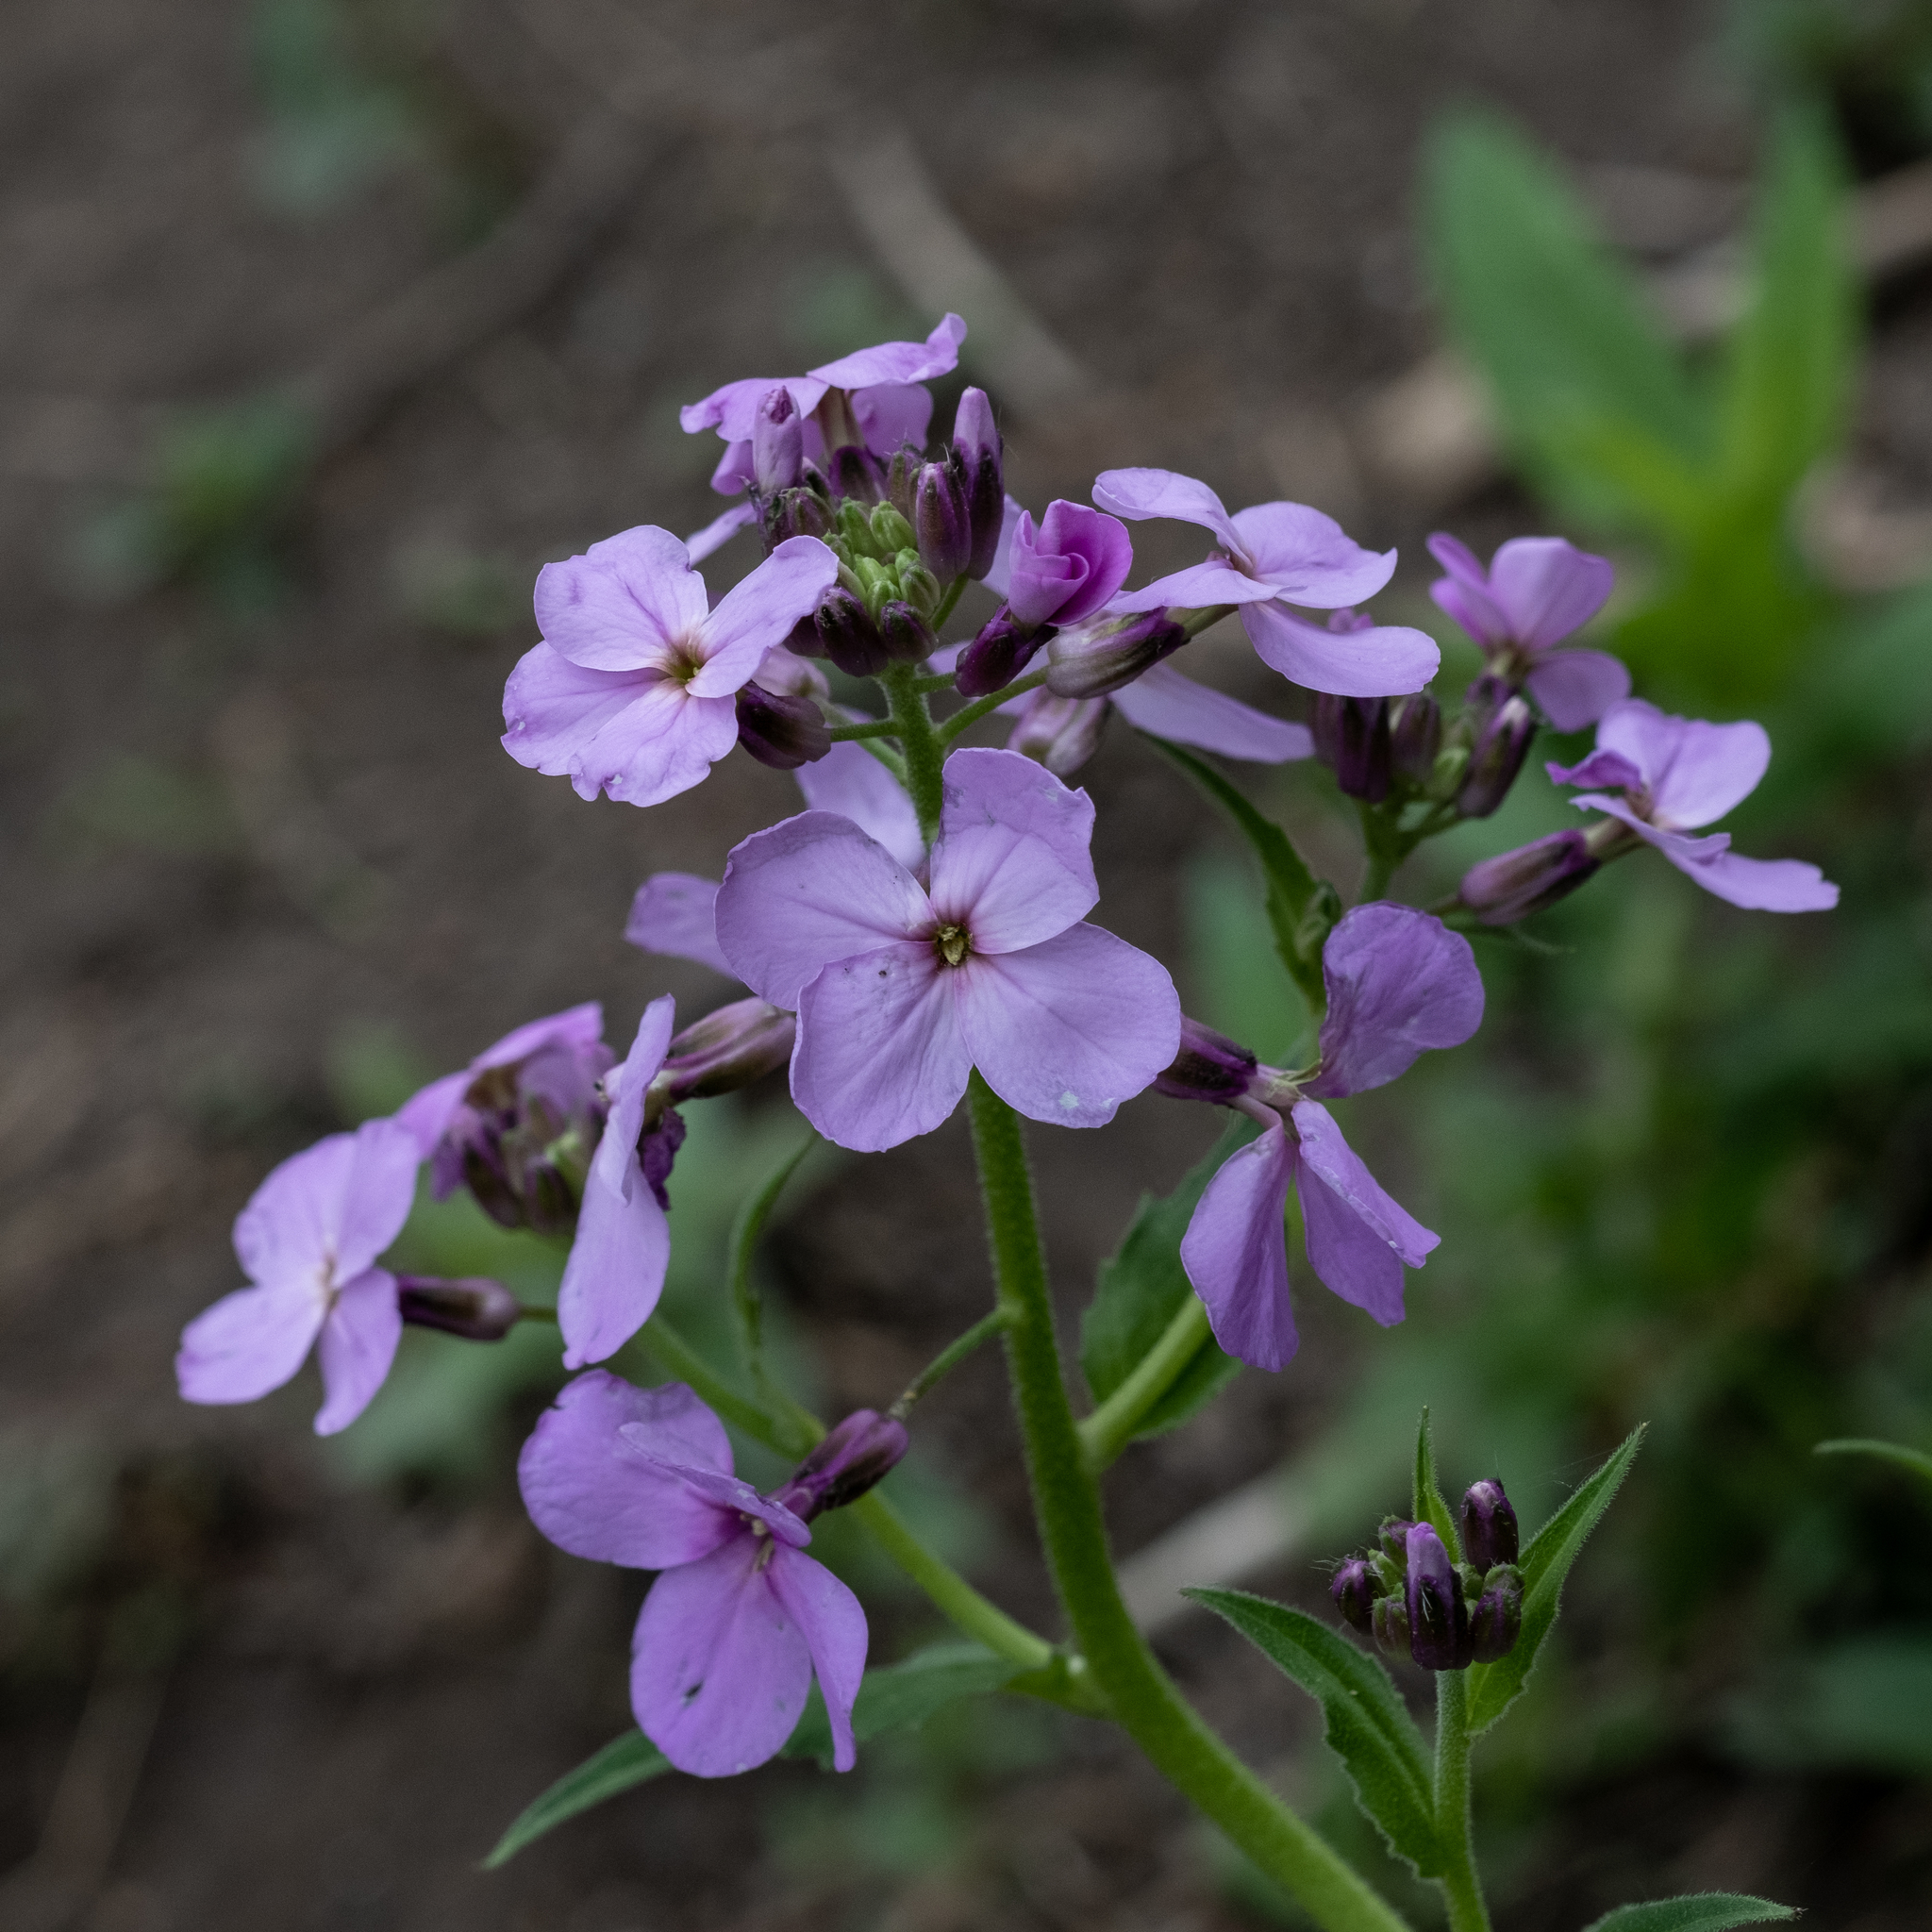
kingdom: Plantae
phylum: Tracheophyta
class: Magnoliopsida
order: Brassicales
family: Brassicaceae
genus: Hesperis
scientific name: Hesperis matronalis
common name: Dame's-violet
